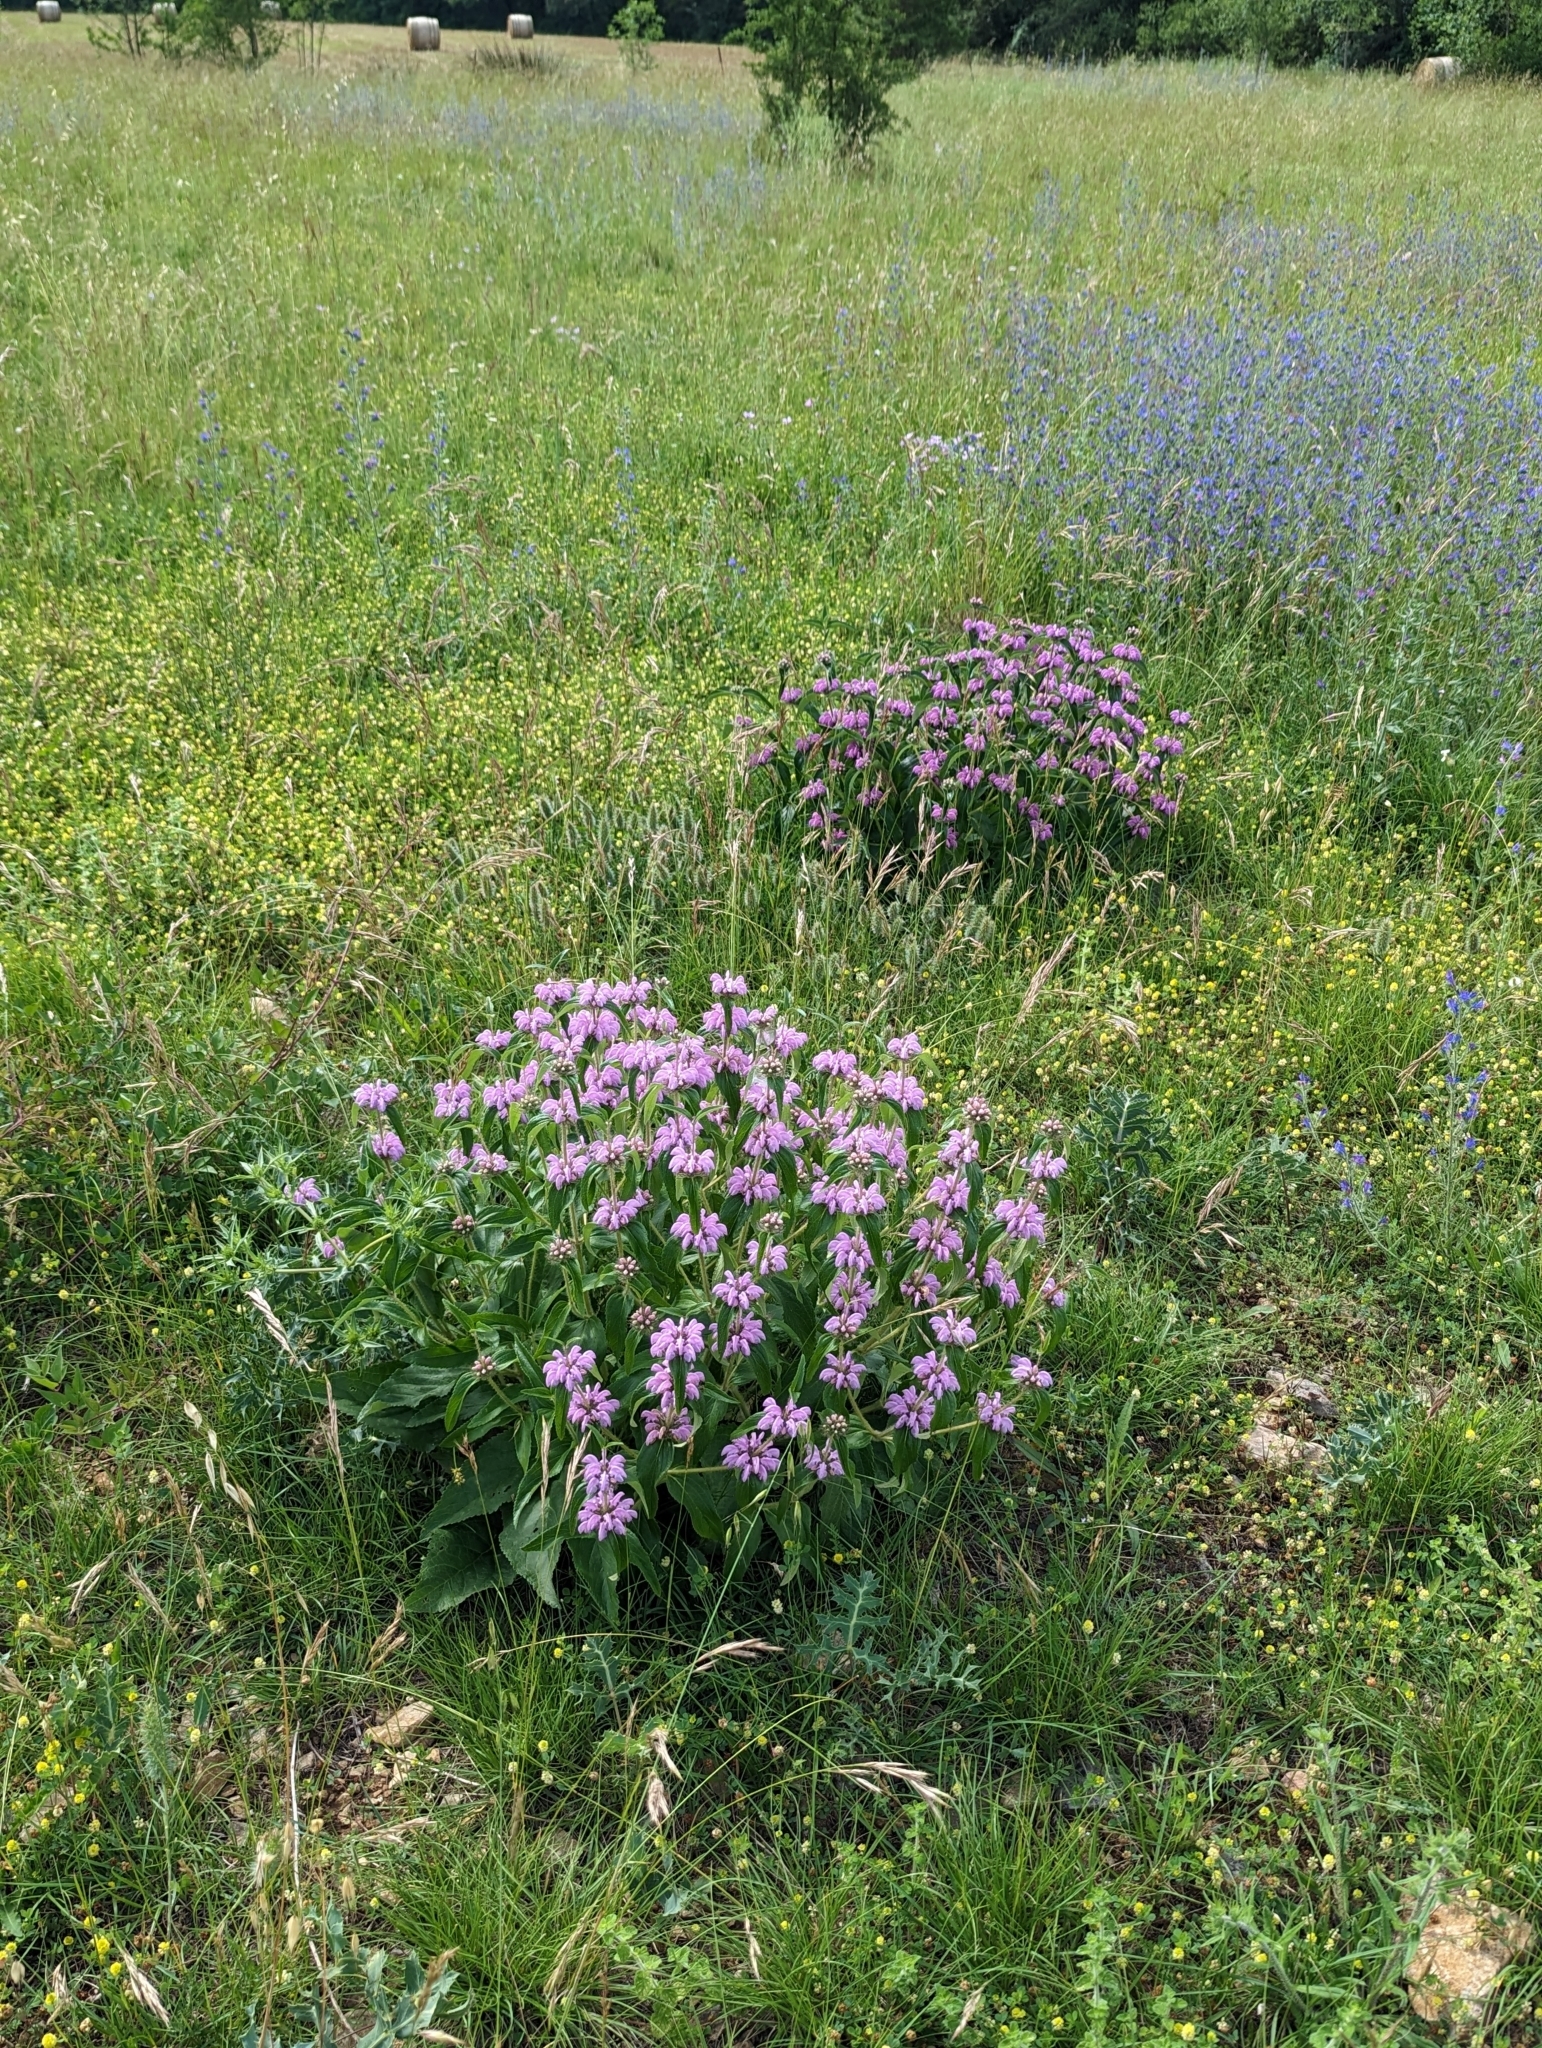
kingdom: Plantae
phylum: Tracheophyta
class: Magnoliopsida
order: Lamiales
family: Lamiaceae
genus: Phlomis
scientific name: Phlomis herba-venti
